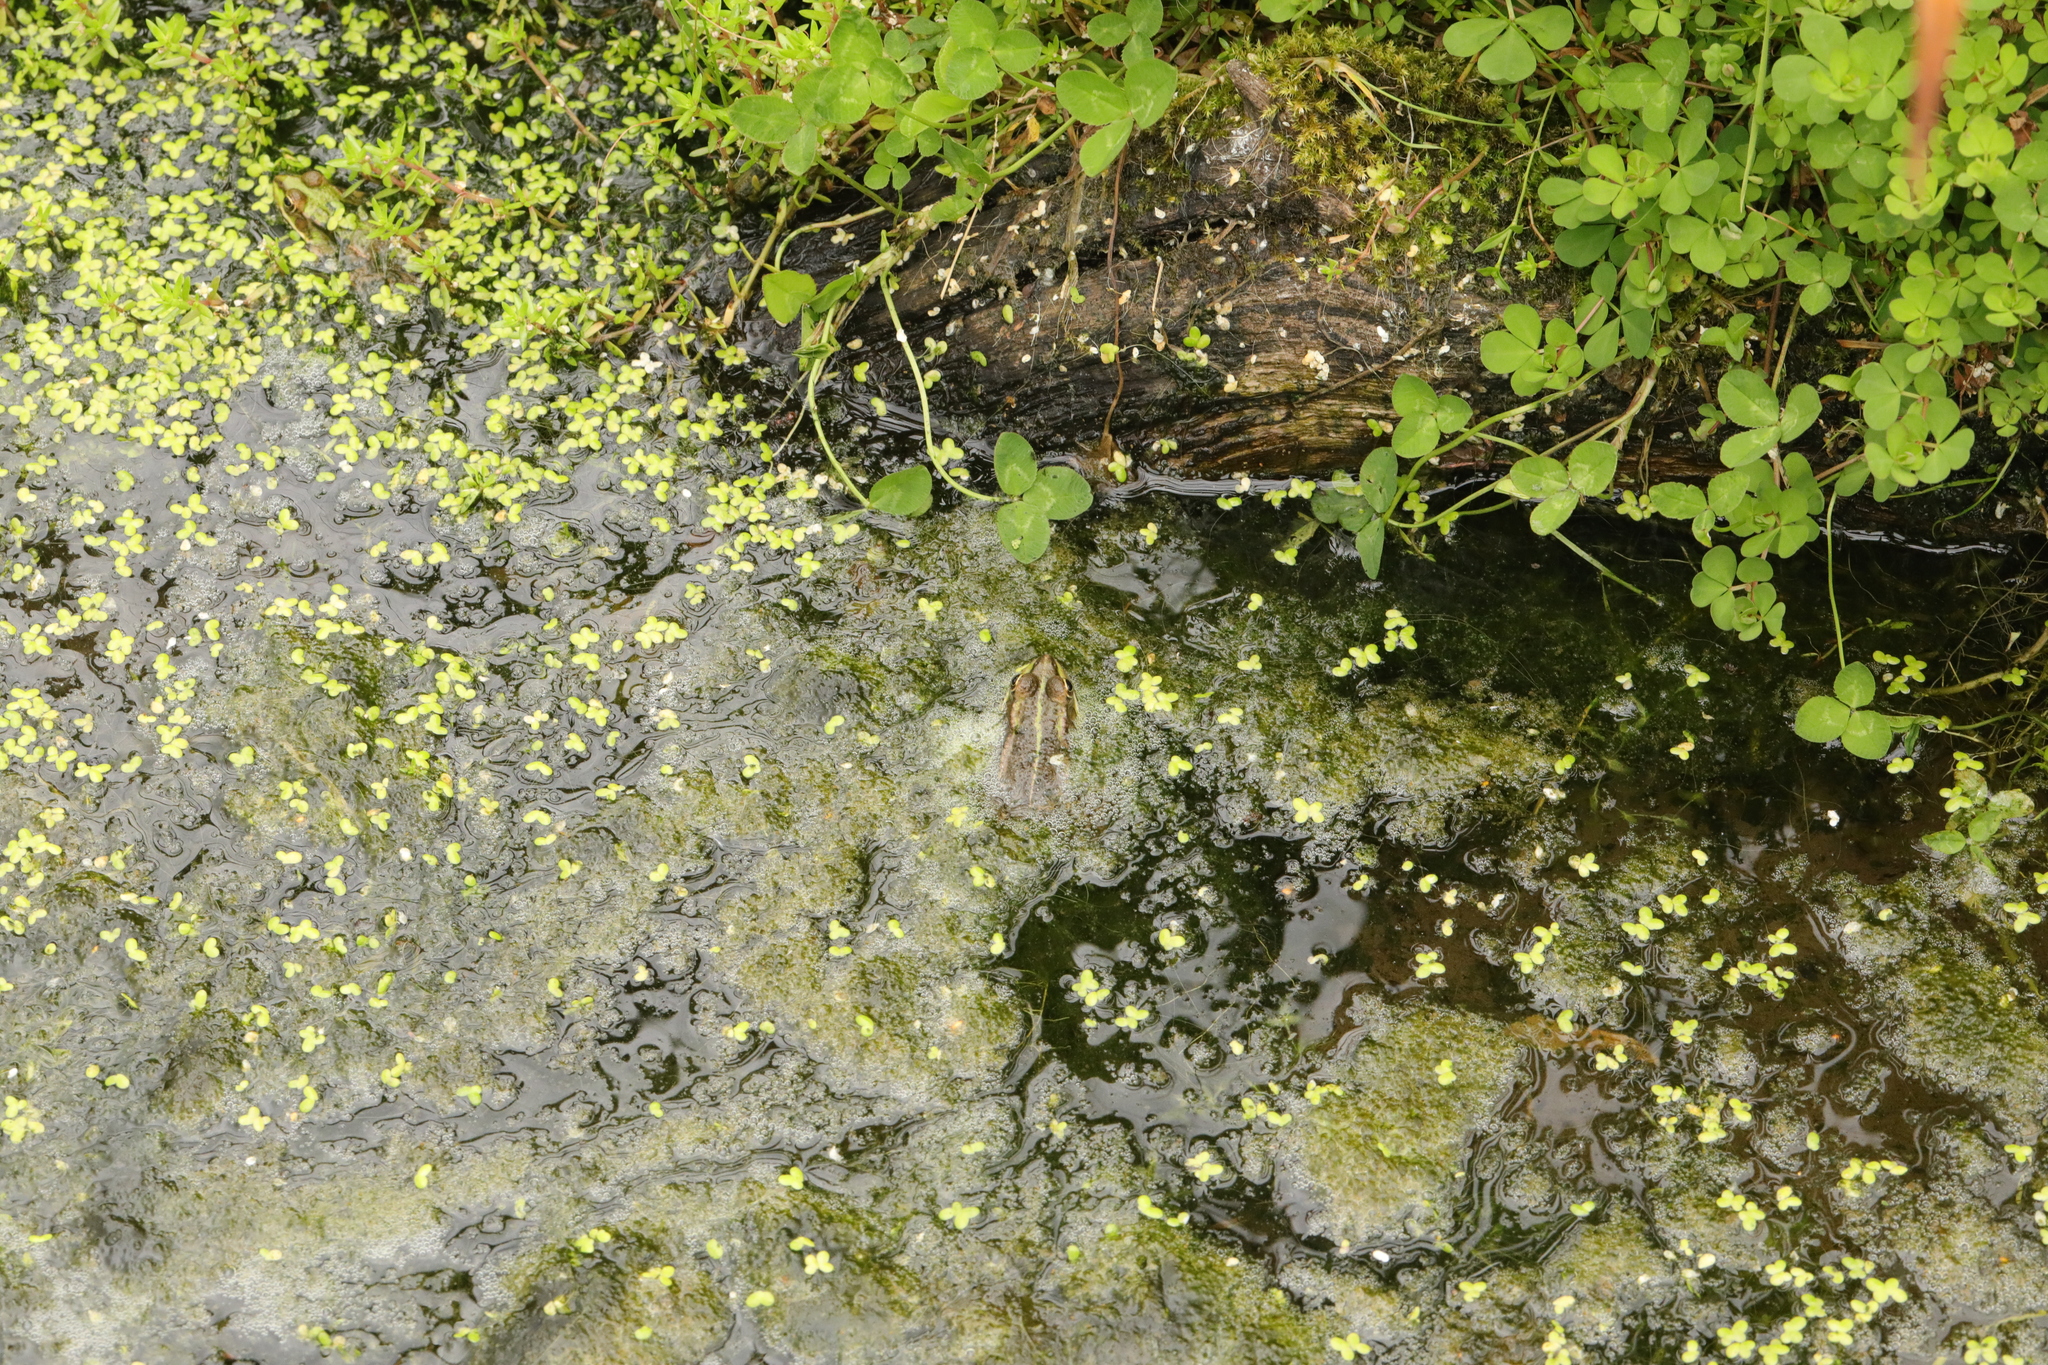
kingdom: Animalia
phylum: Chordata
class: Amphibia
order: Anura
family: Ranidae
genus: Pelophylax
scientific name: Pelophylax
